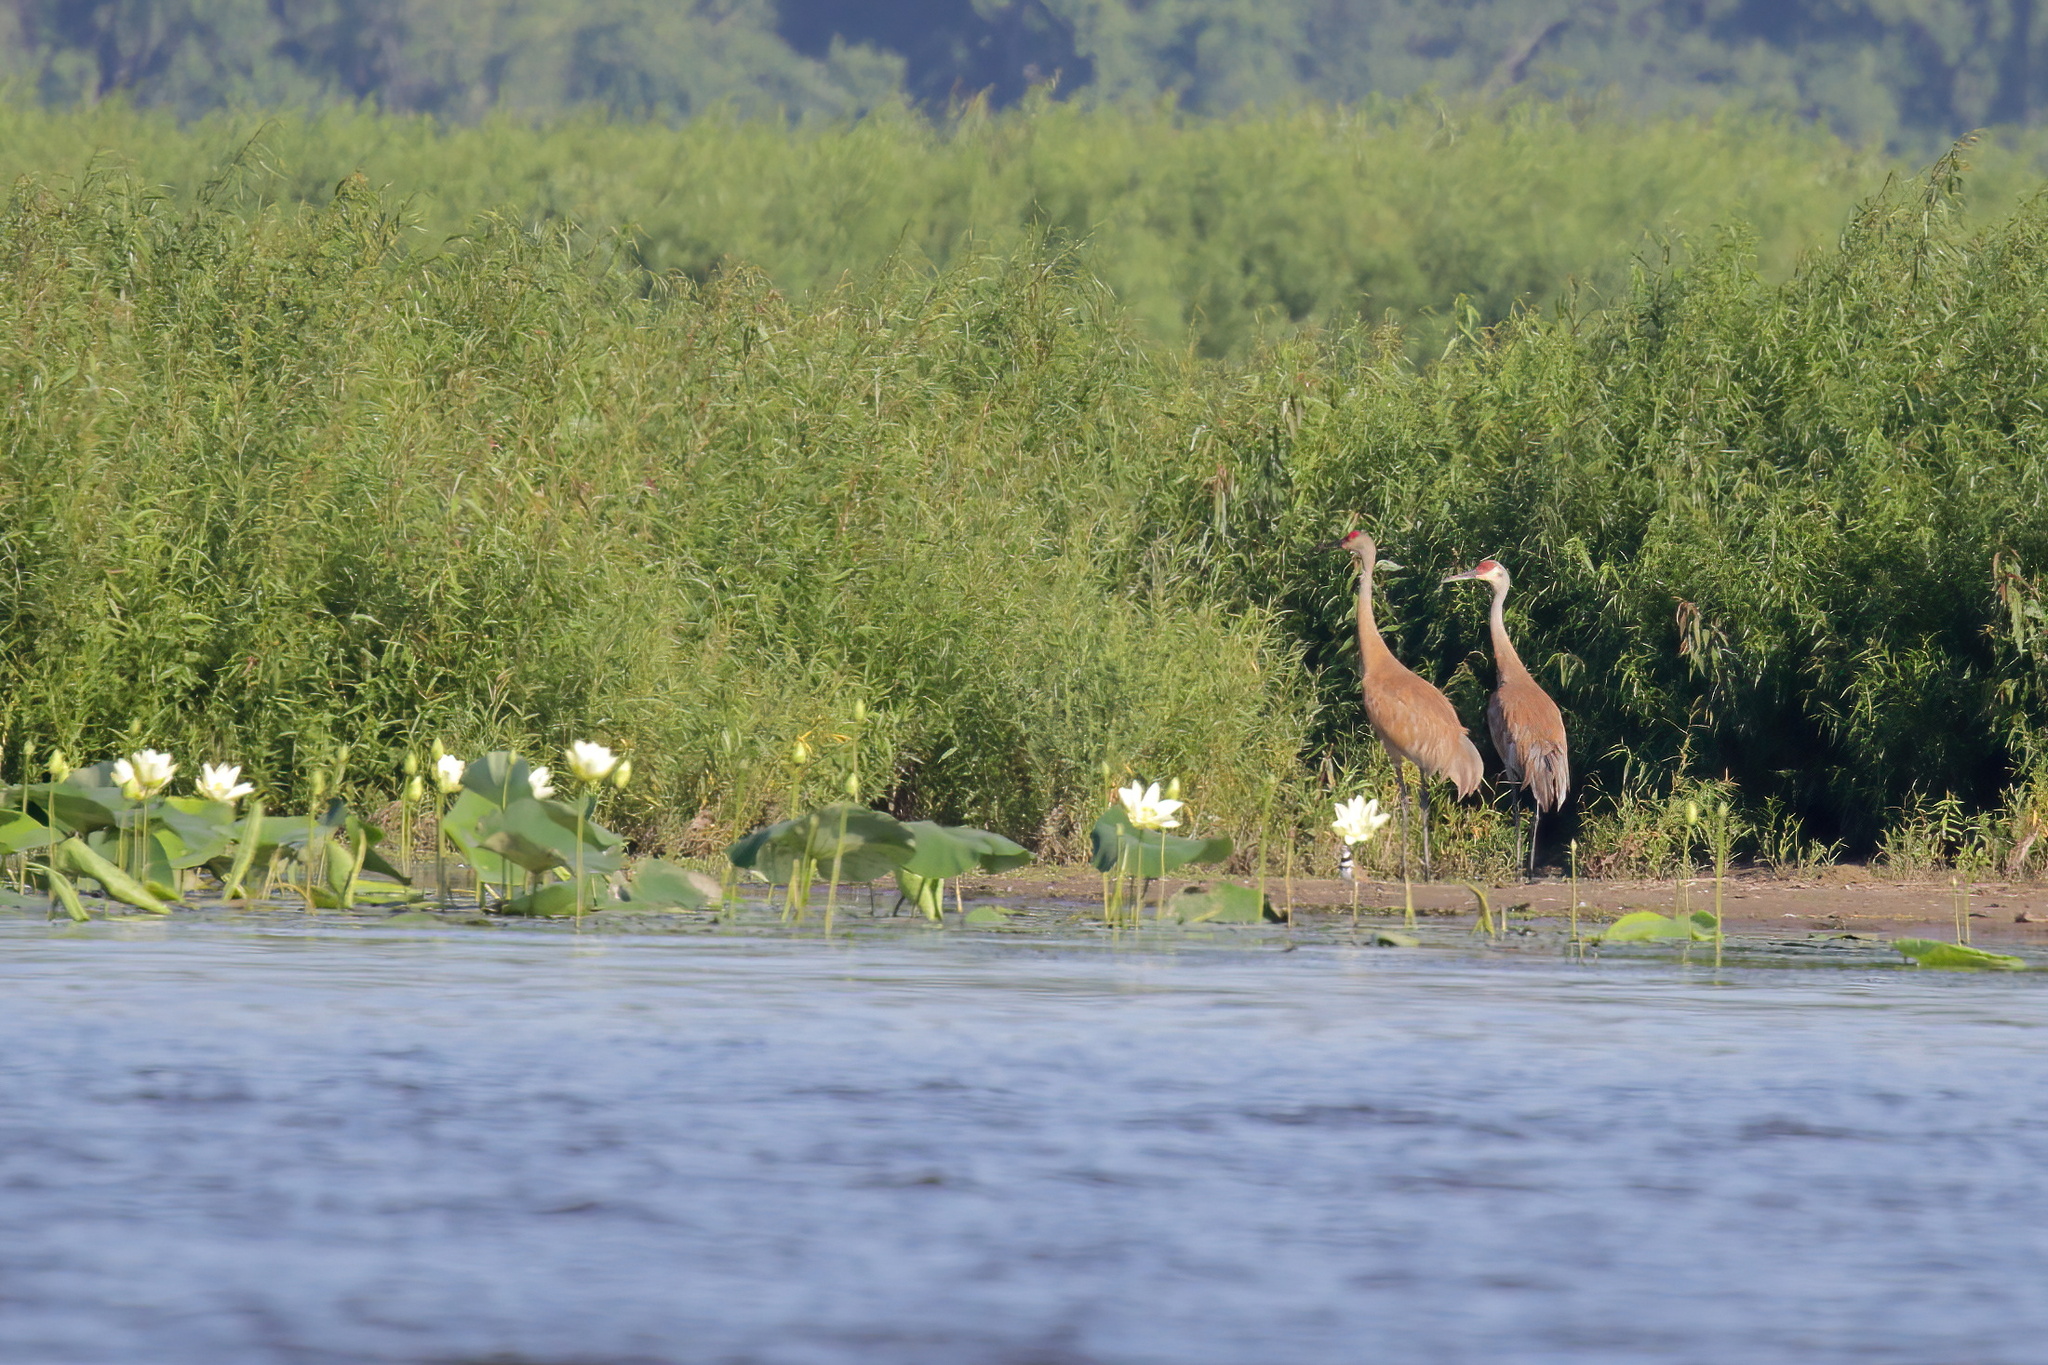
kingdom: Animalia
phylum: Chordata
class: Aves
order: Gruiformes
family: Gruidae
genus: Grus
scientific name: Grus canadensis
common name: Sandhill crane
